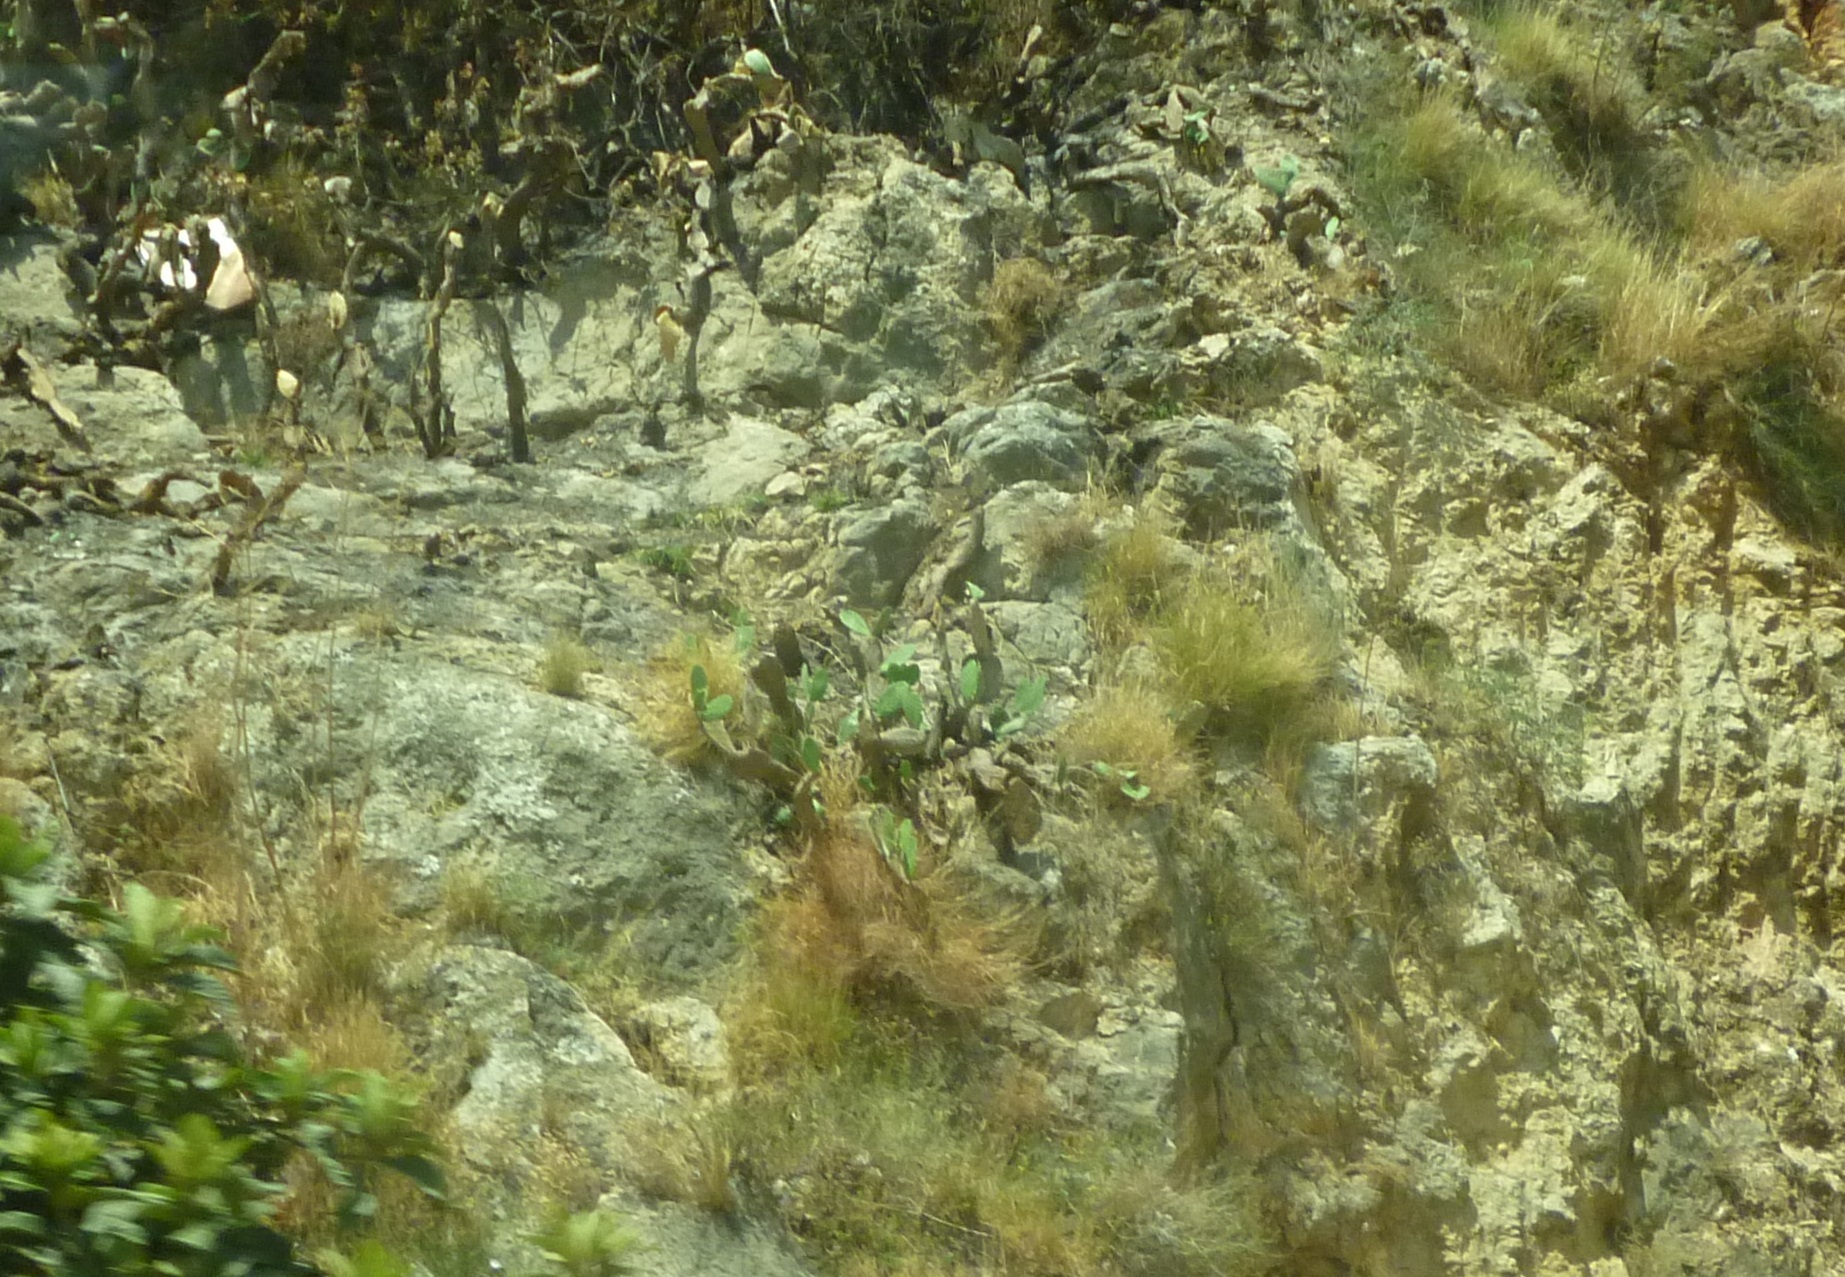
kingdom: Plantae
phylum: Tracheophyta
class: Magnoliopsida
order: Caryophyllales
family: Cactaceae
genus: Opuntia
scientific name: Opuntia ficus-indica
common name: Barbary fig
